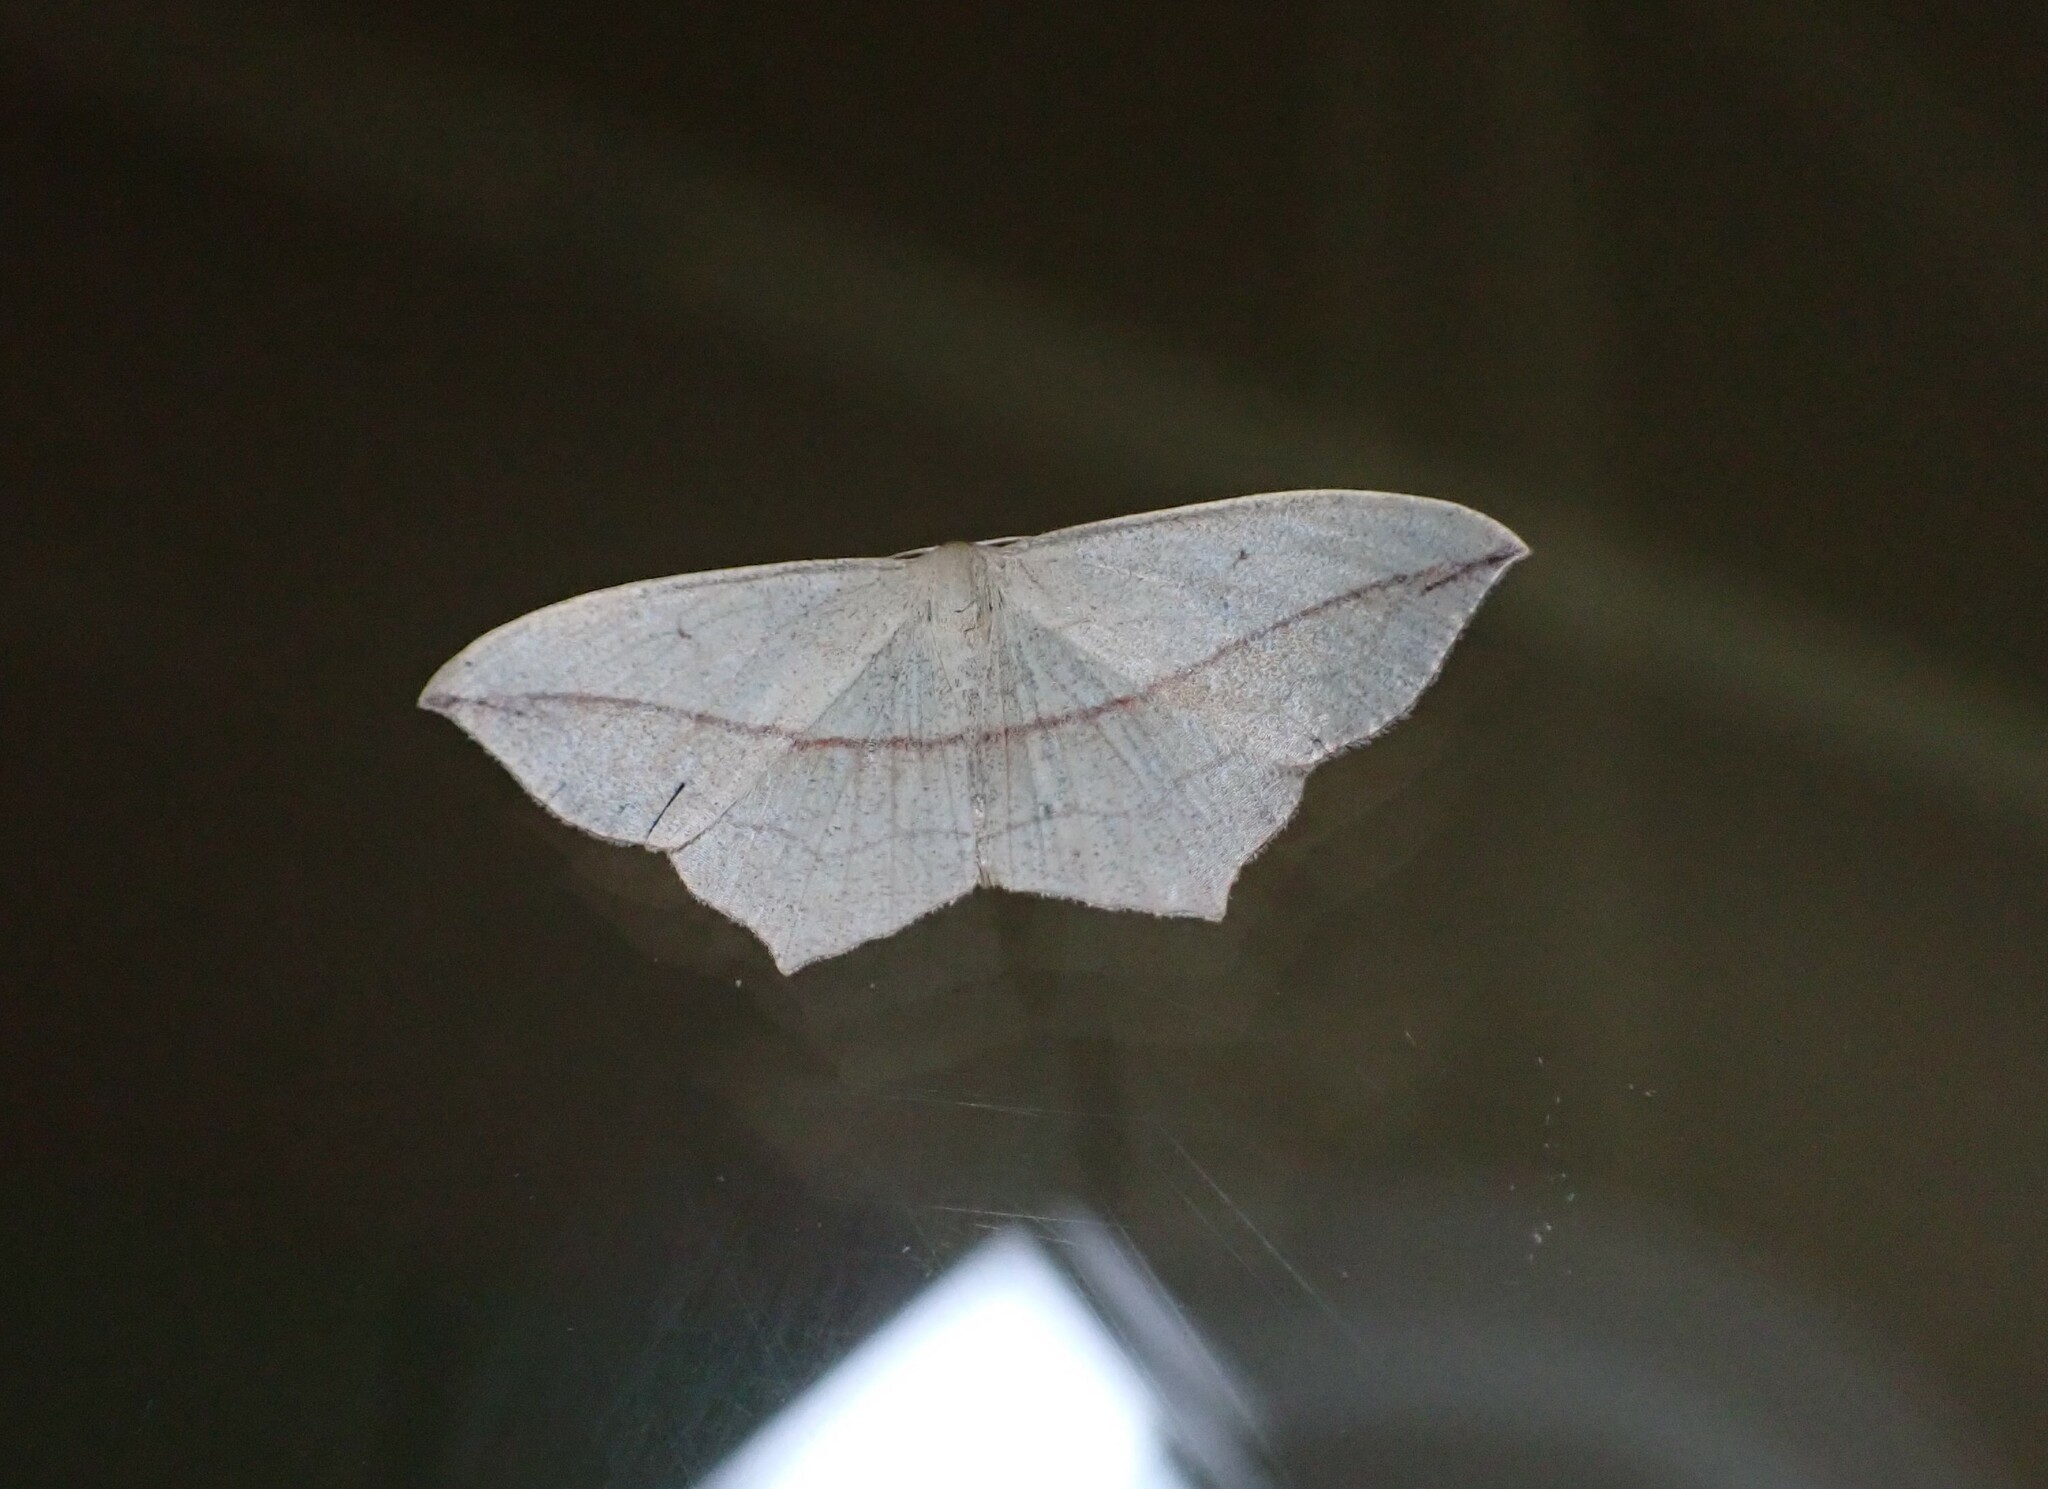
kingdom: Animalia
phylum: Arthropoda
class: Insecta
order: Lepidoptera
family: Geometridae
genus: Timandra
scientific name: Timandra comae
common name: Blood-vein
